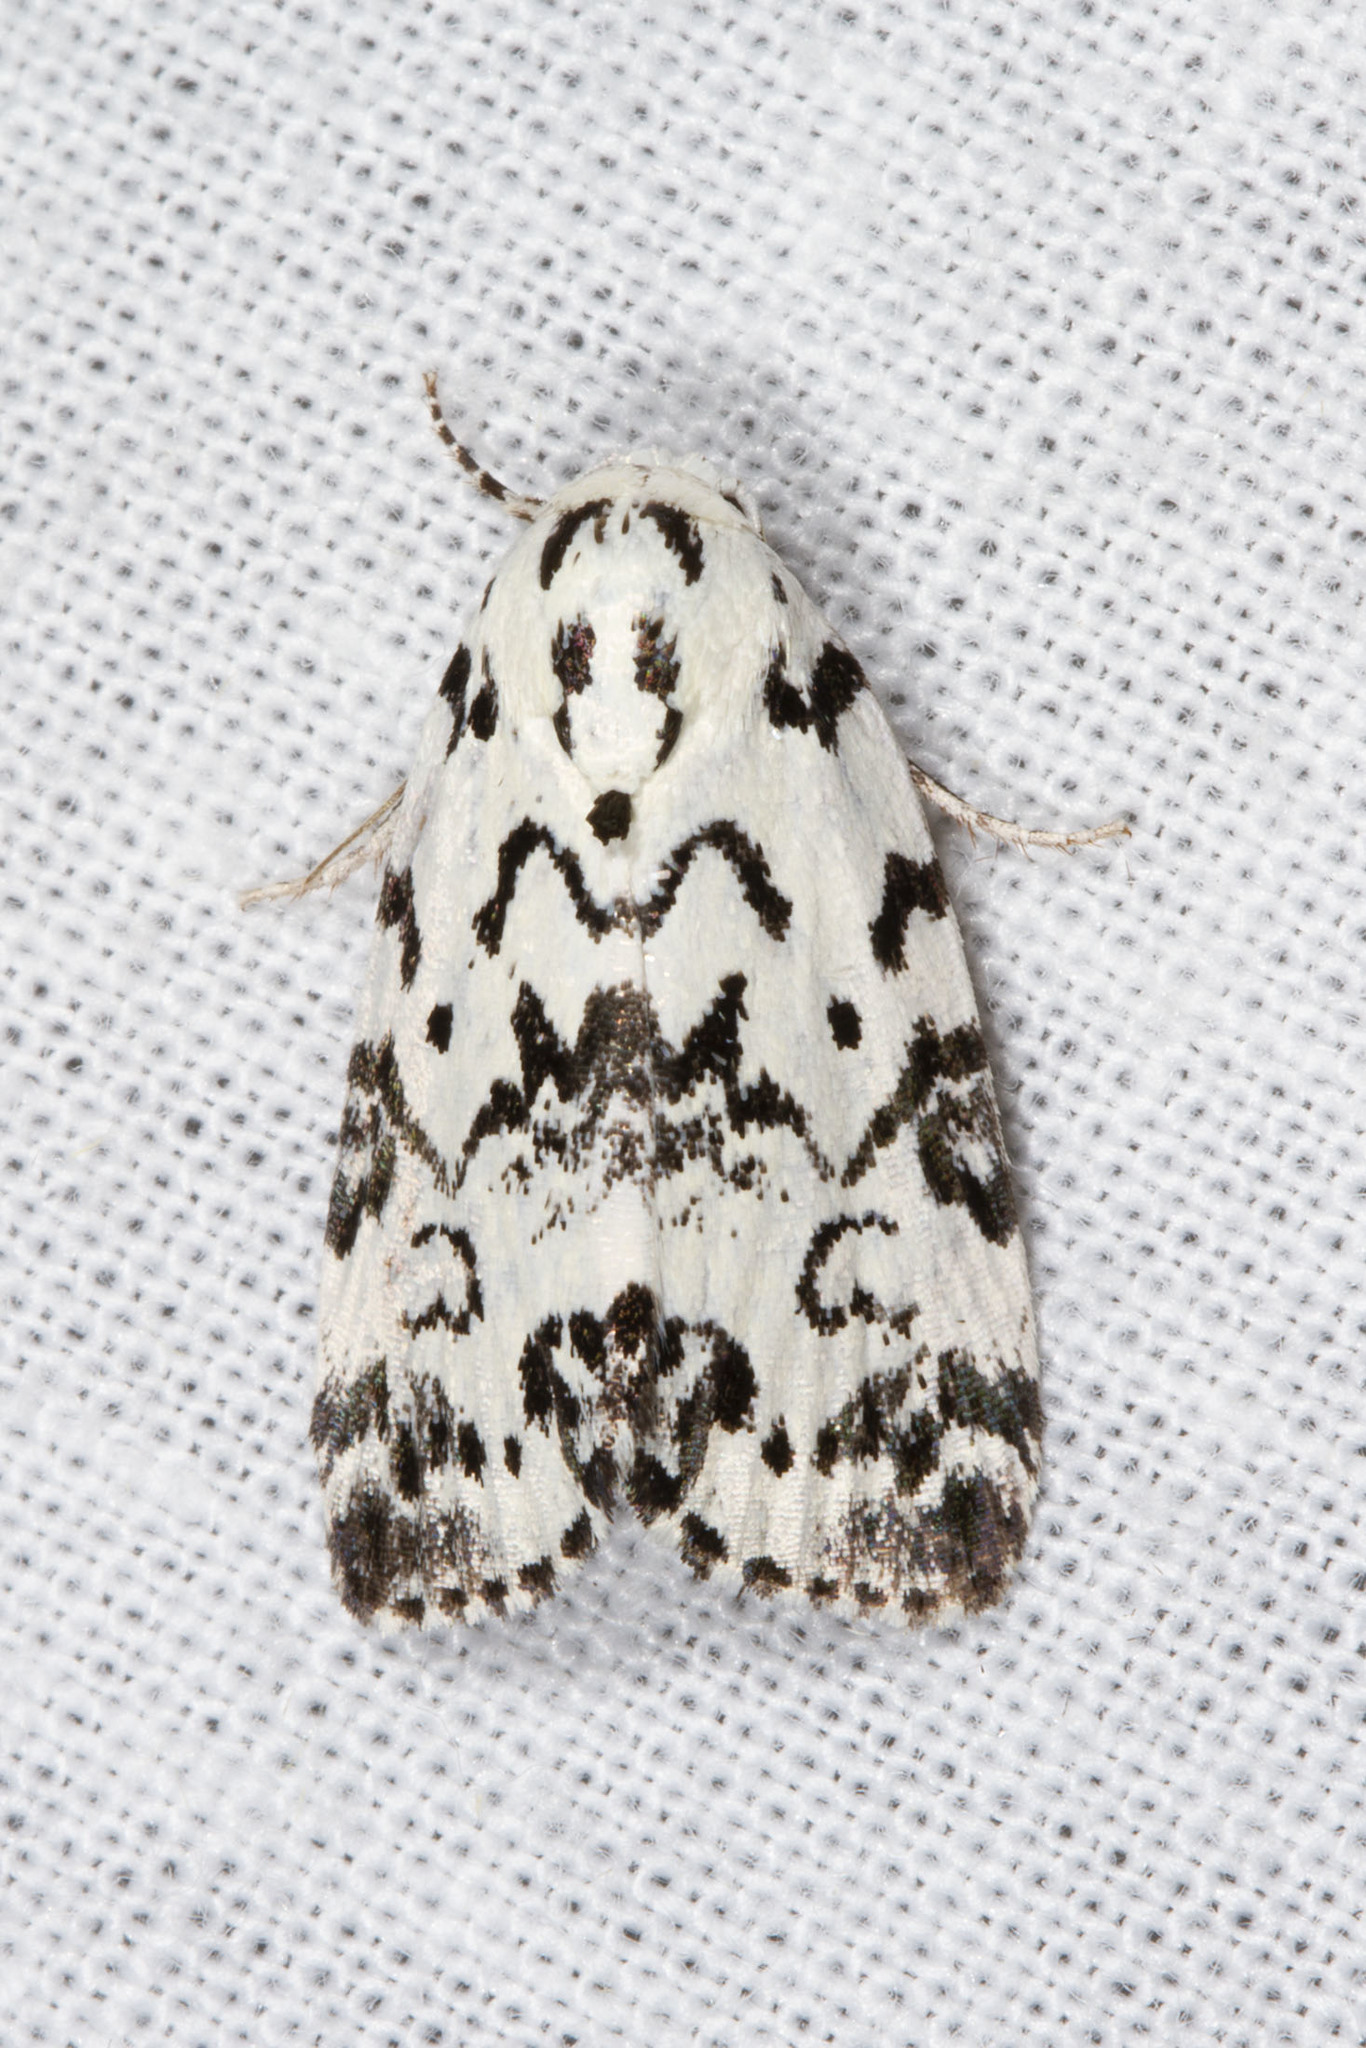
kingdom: Animalia
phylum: Arthropoda
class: Insecta
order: Lepidoptera
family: Noctuidae
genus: Polygrammate
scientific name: Polygrammate hebraeicum
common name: Hebrew moth
